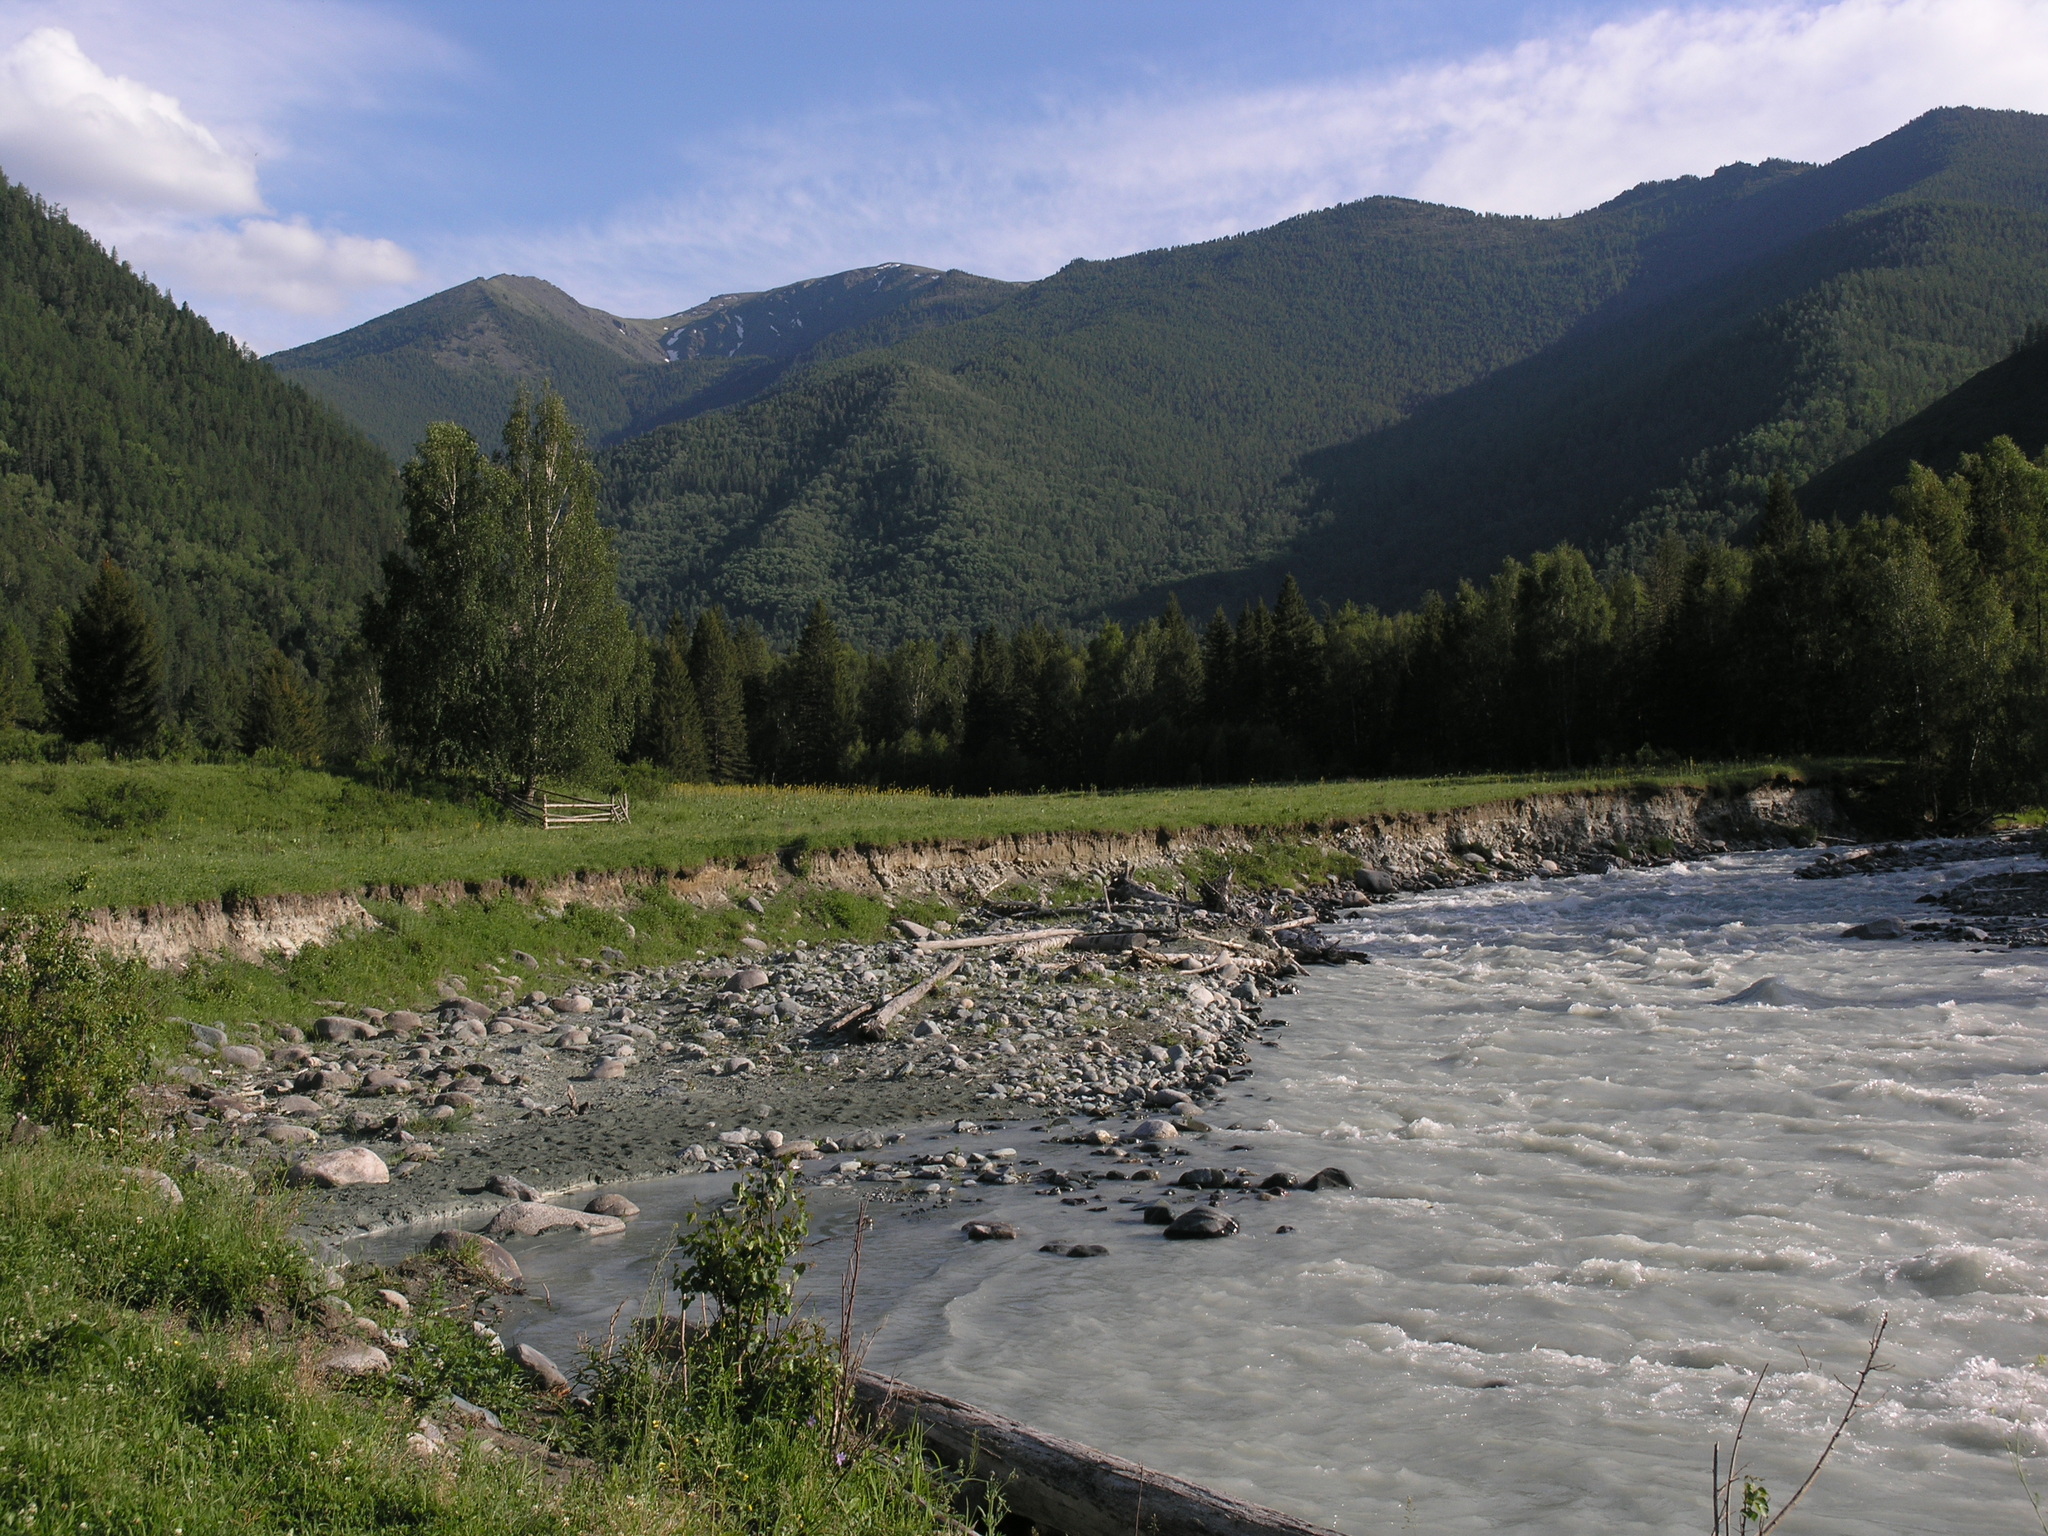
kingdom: Plantae
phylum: Tracheophyta
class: Magnoliopsida
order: Fagales
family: Betulaceae
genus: Betula
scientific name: Betula pendula
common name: Silver birch
